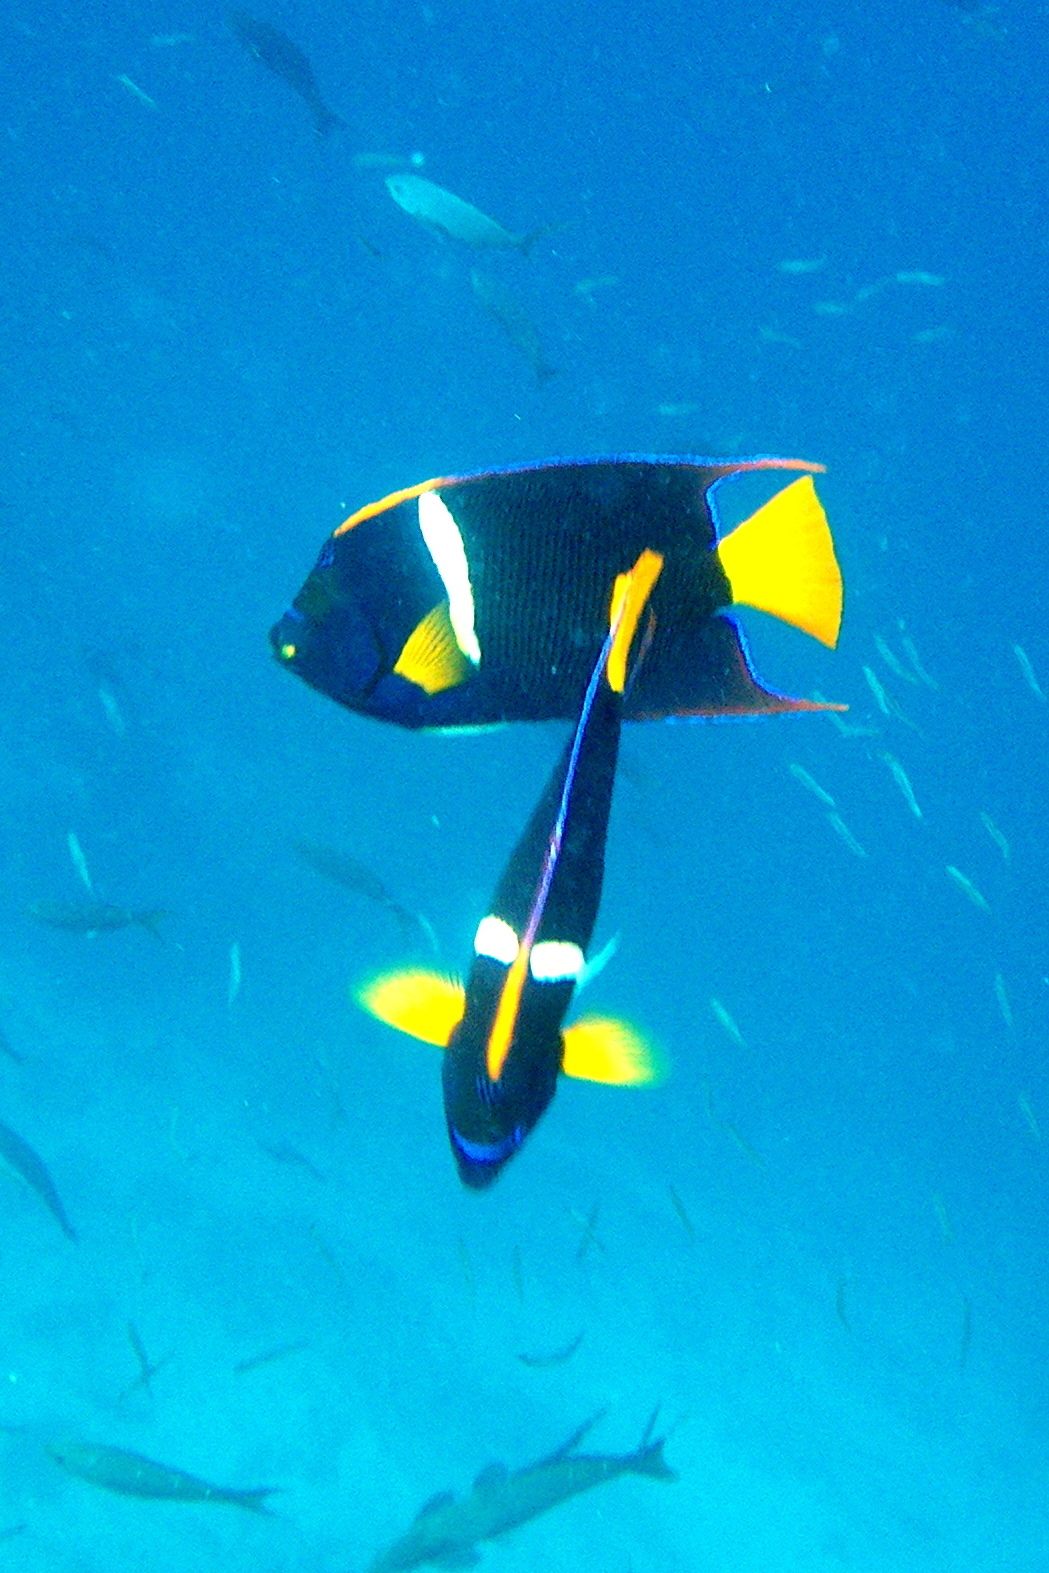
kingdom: Animalia
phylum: Chordata
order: Perciformes
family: Pomacanthidae
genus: Holacanthus
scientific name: Holacanthus passer
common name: King angelfish
